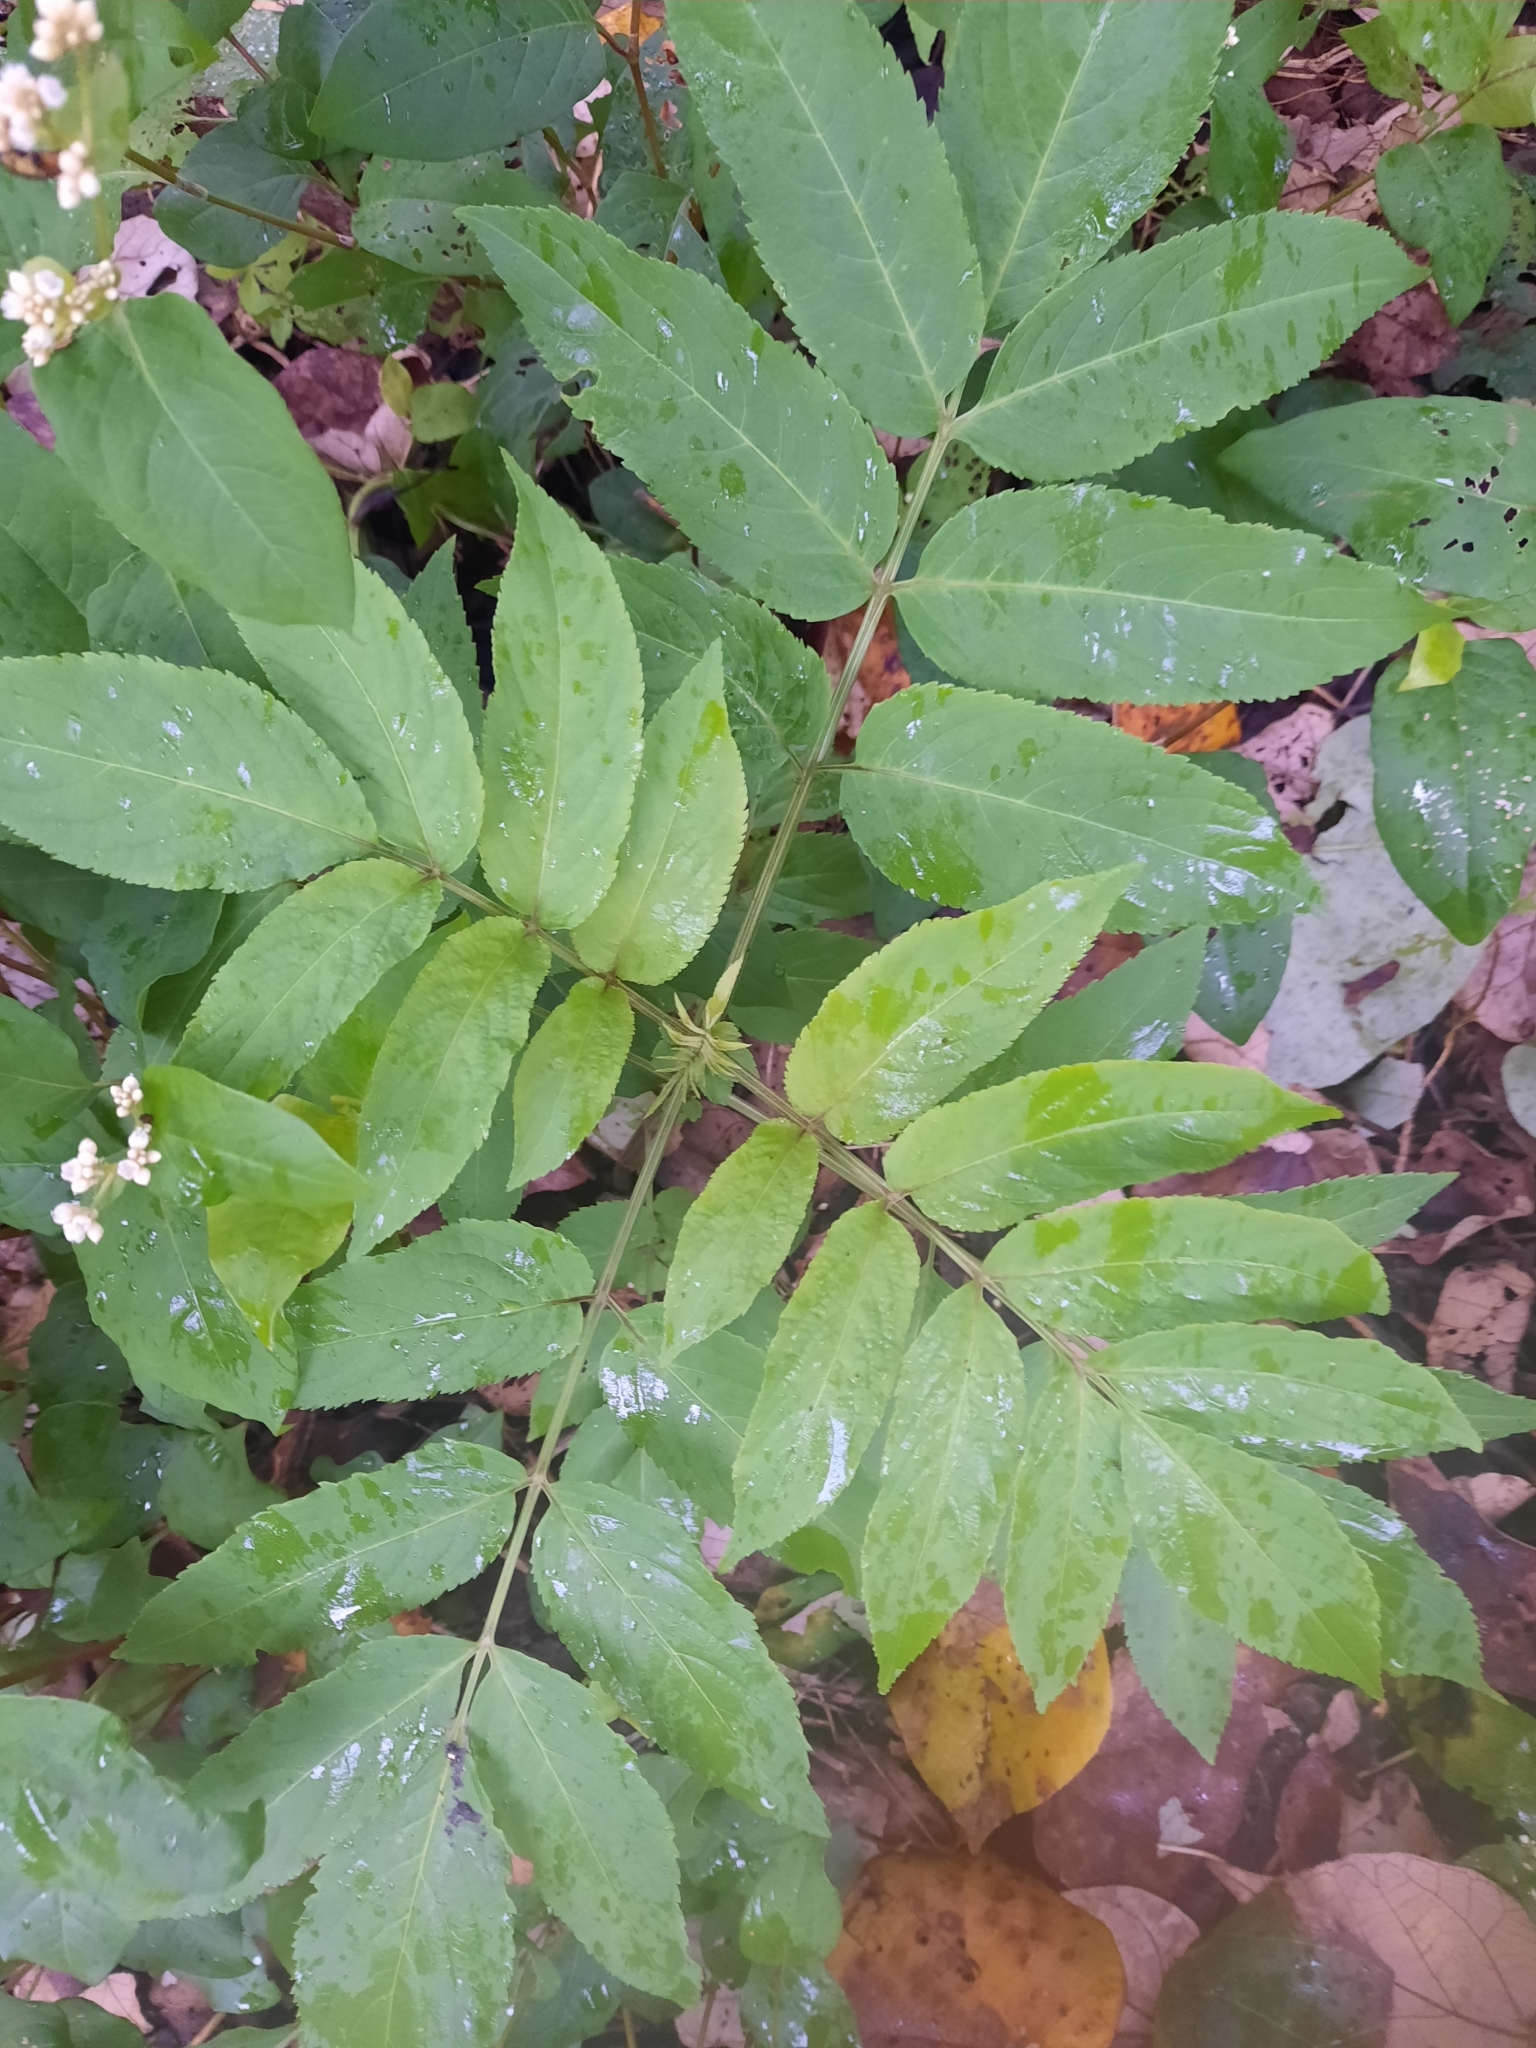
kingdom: Plantae
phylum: Tracheophyta
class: Magnoliopsida
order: Dipsacales
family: Viburnaceae
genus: Sambucus
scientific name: Sambucus javanica
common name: Chinese elder
